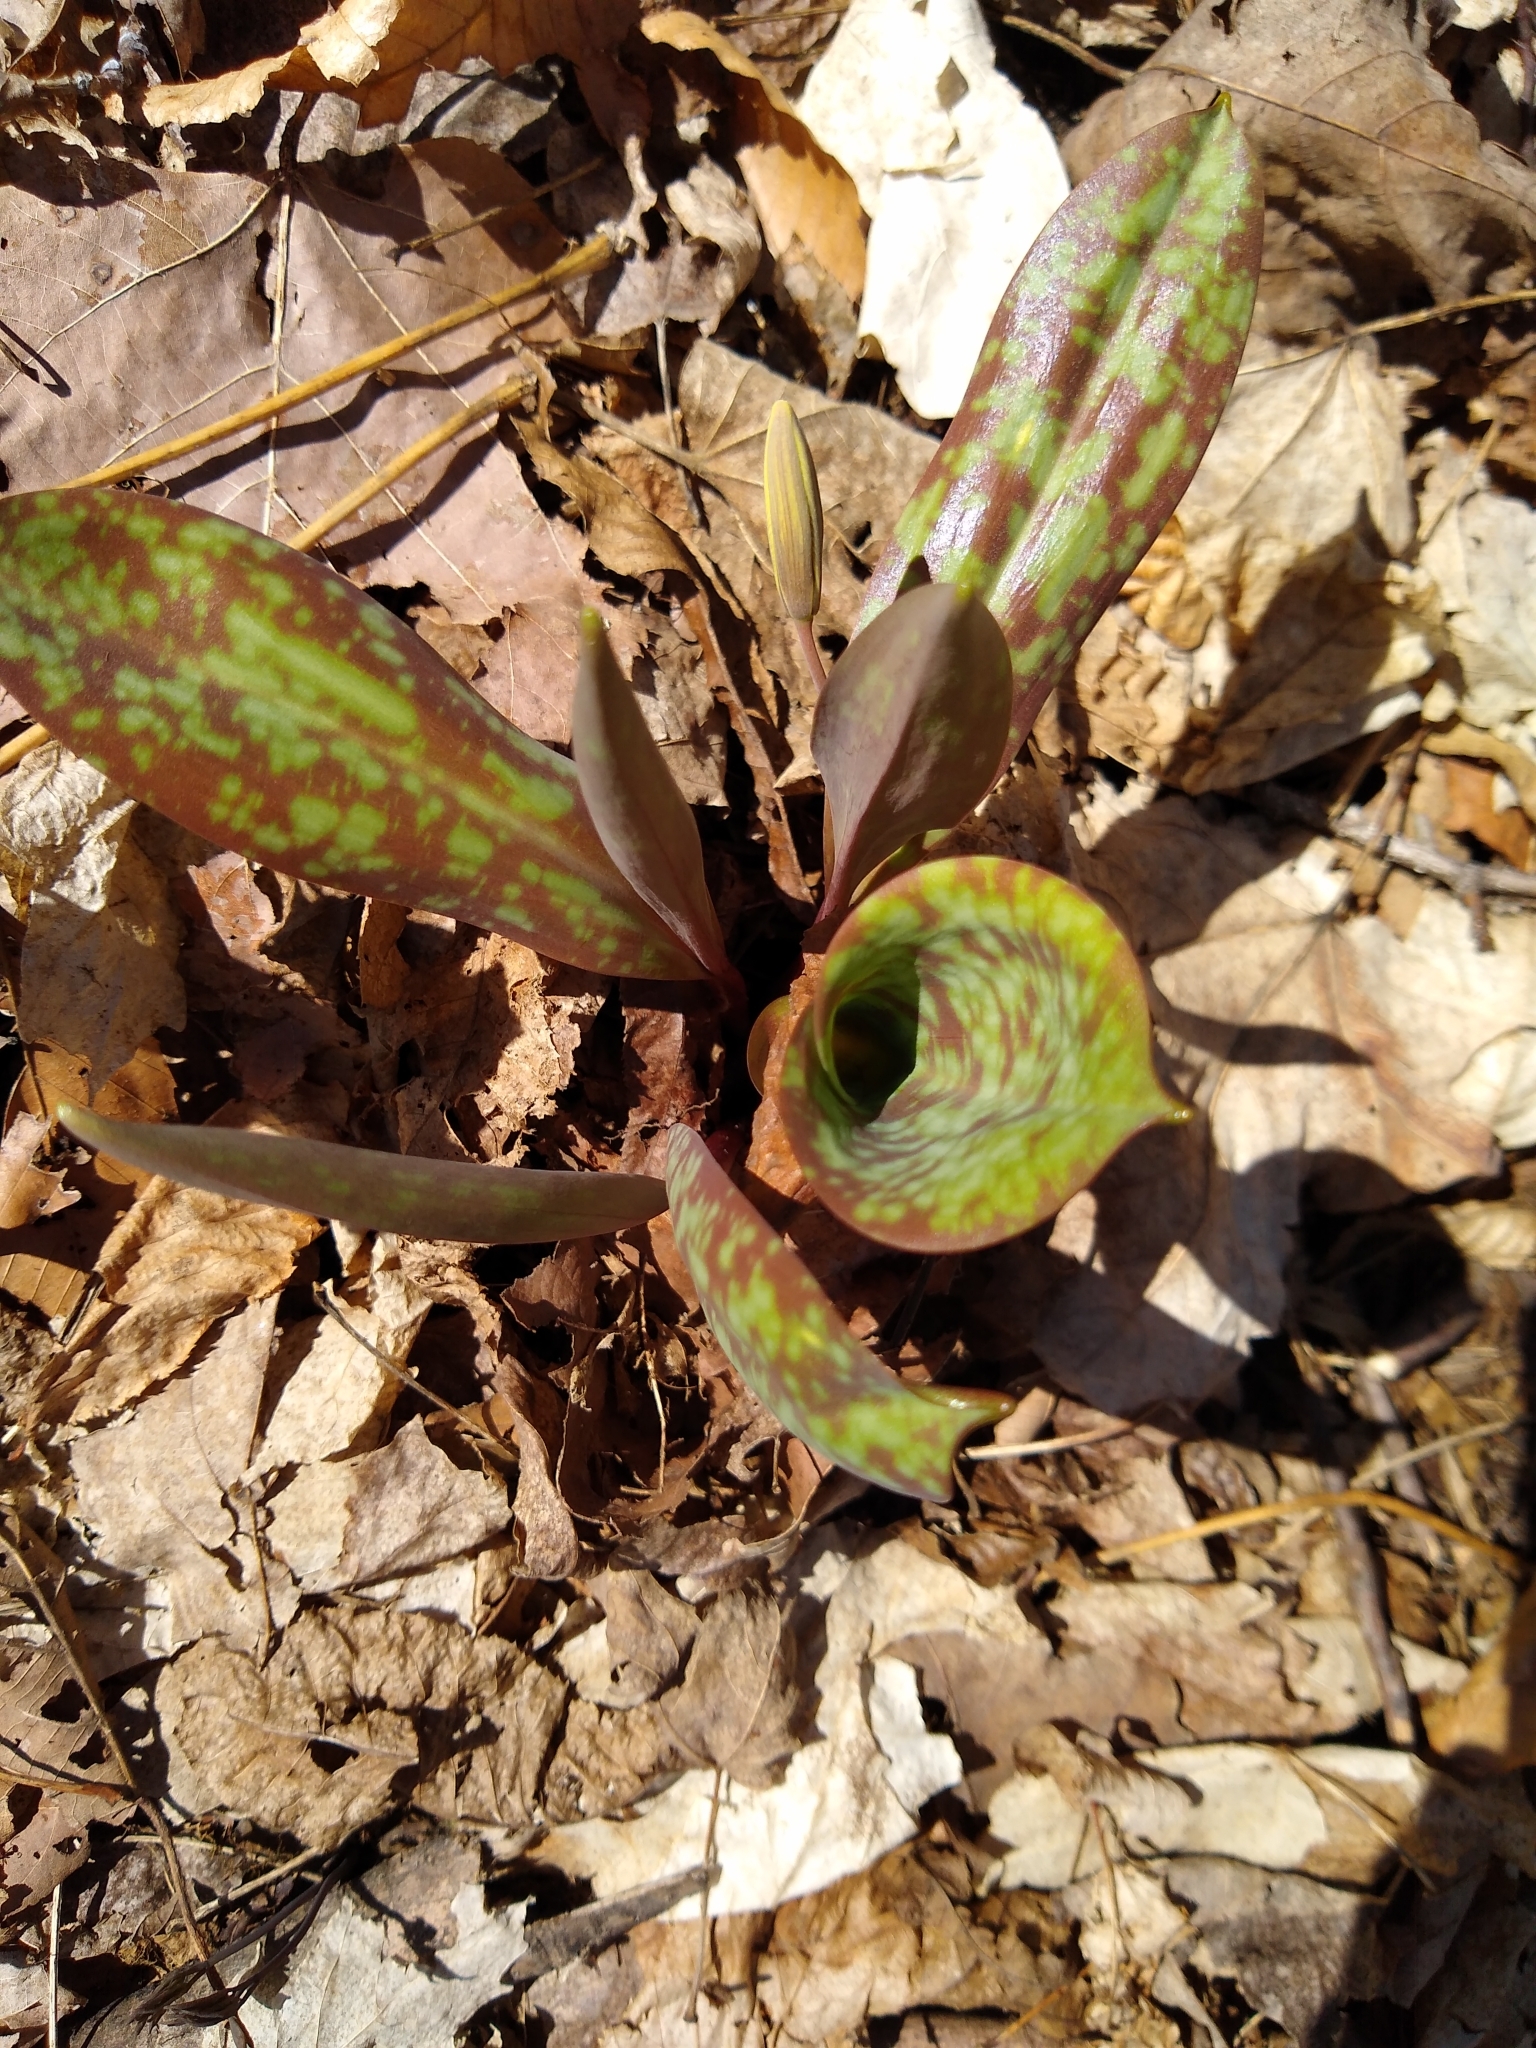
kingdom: Plantae
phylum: Tracheophyta
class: Liliopsida
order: Liliales
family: Liliaceae
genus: Erythronium
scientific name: Erythronium americanum
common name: Yellow adder's-tongue
